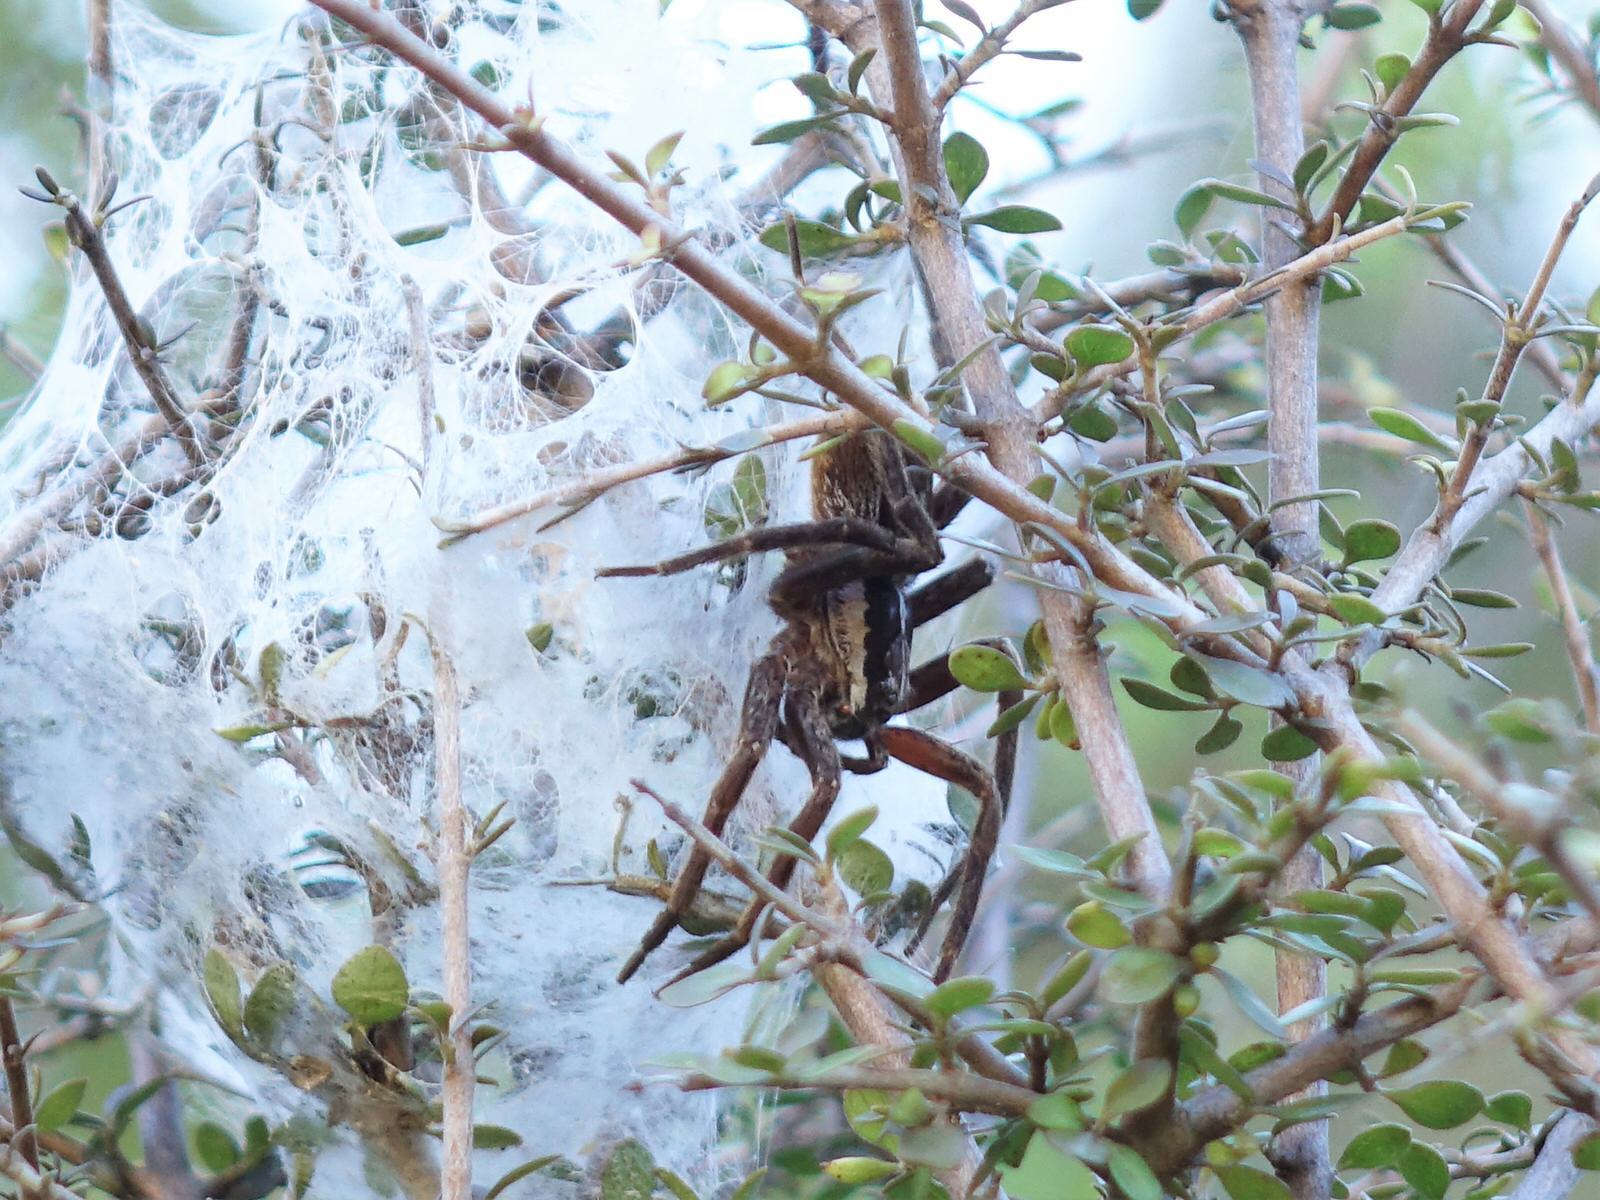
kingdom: Animalia
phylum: Arthropoda
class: Arachnida
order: Araneae
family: Pisauridae
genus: Dolomedes
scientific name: Dolomedes minor
